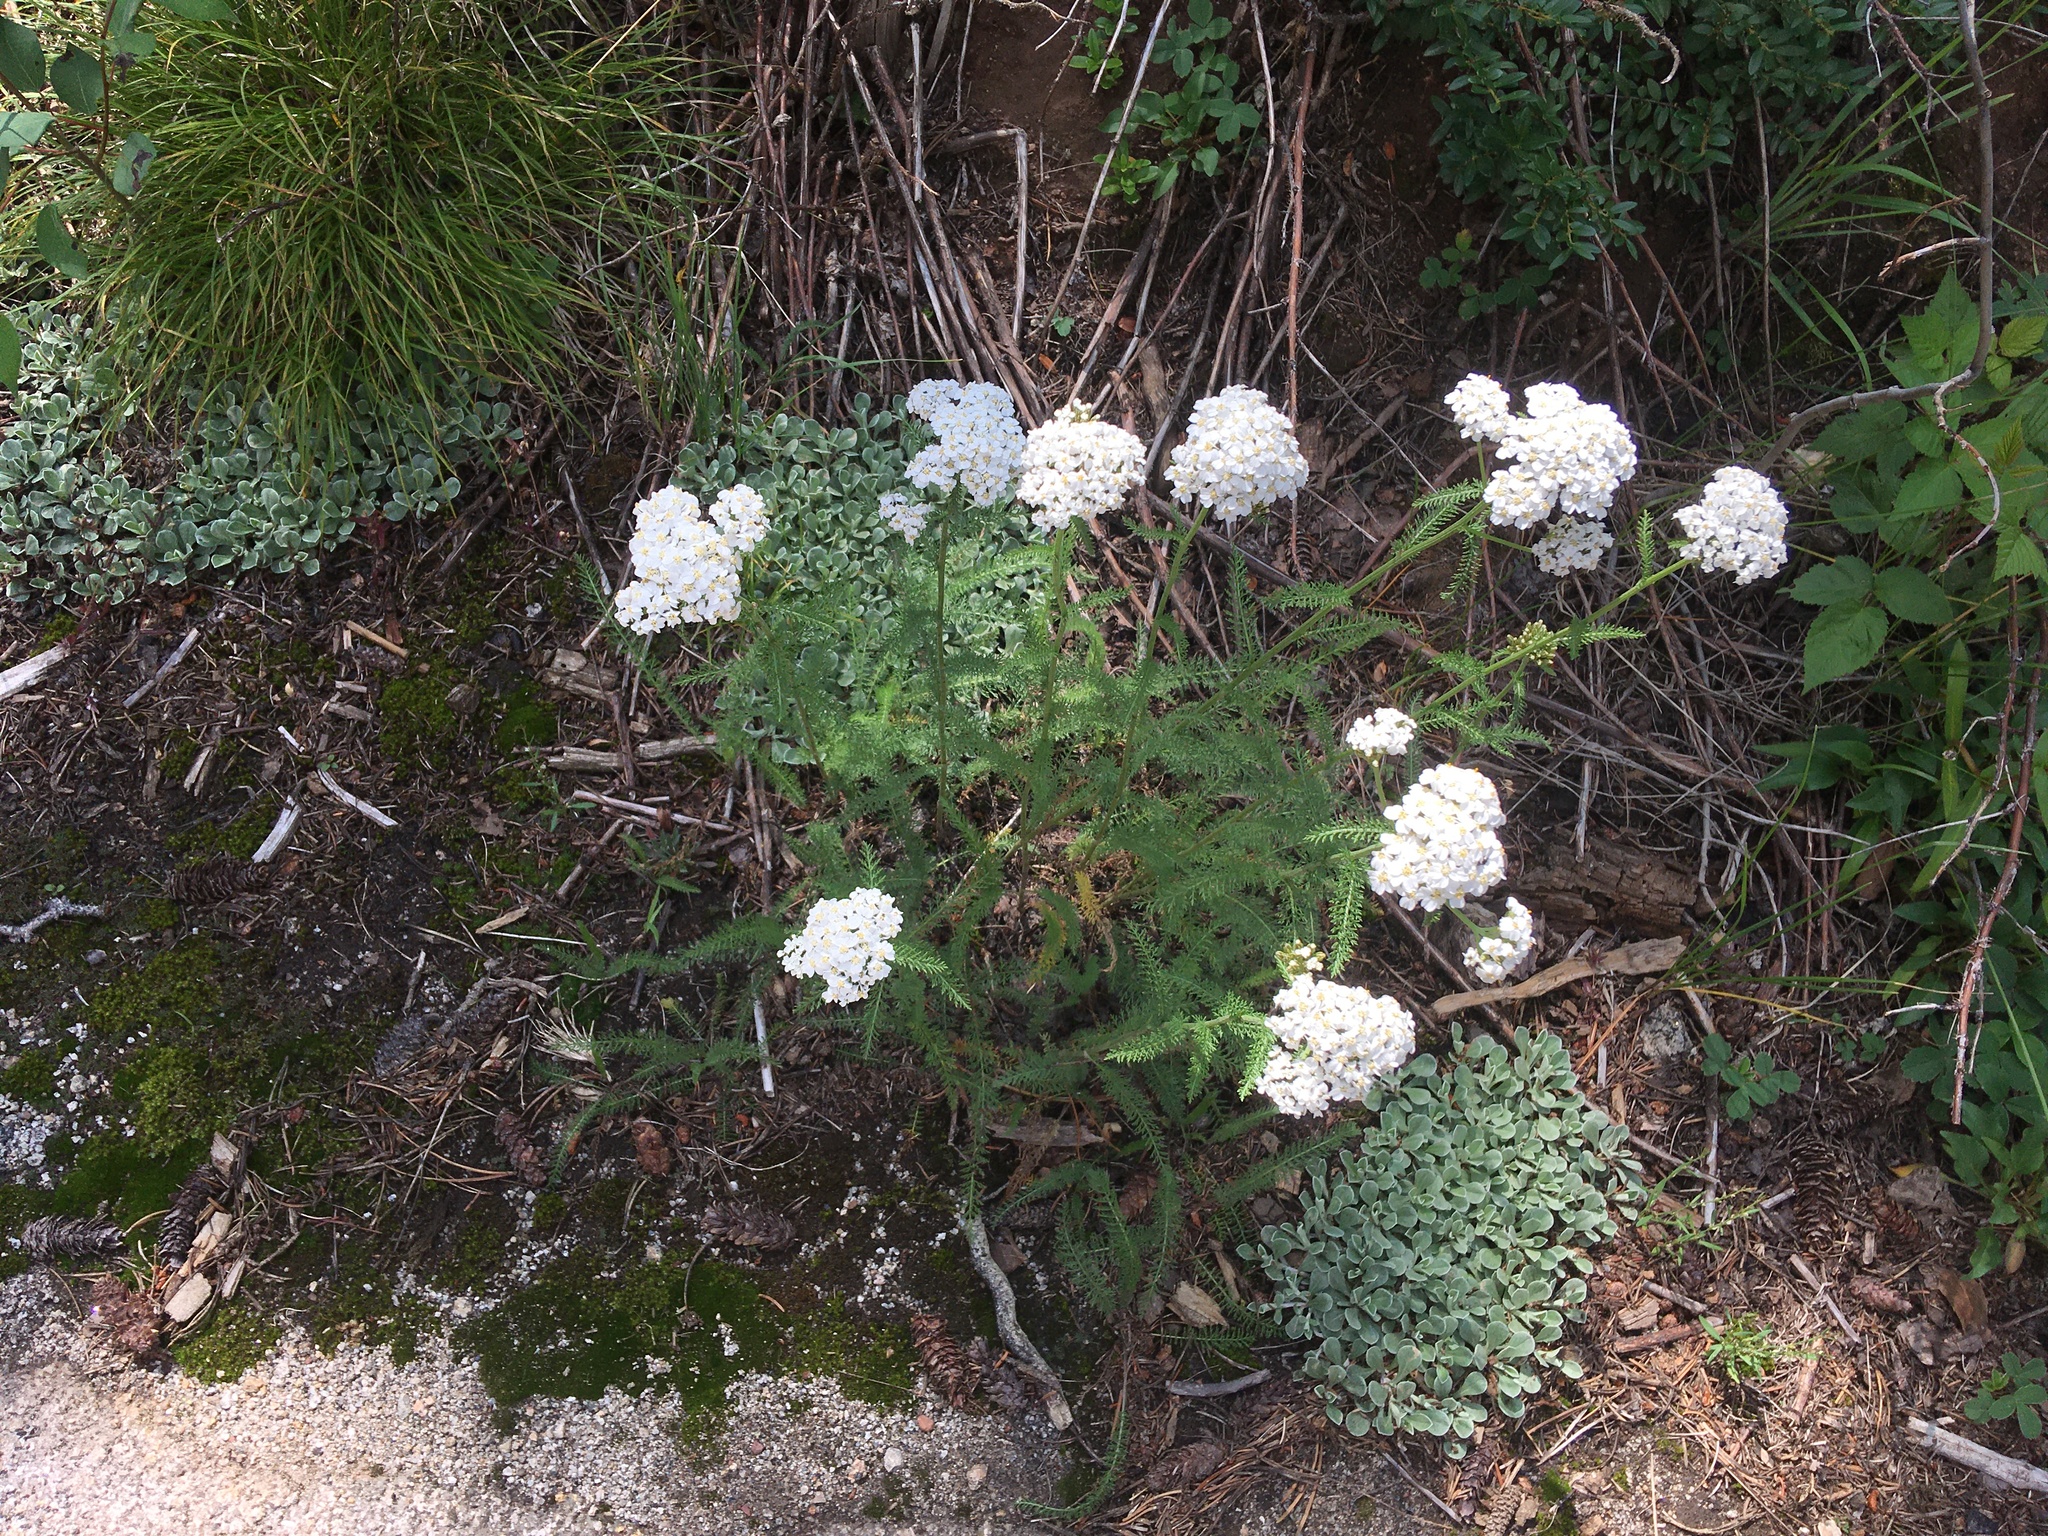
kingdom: Plantae
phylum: Tracheophyta
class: Magnoliopsida
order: Asterales
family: Asteraceae
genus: Achillea
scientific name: Achillea millefolium
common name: Yarrow
